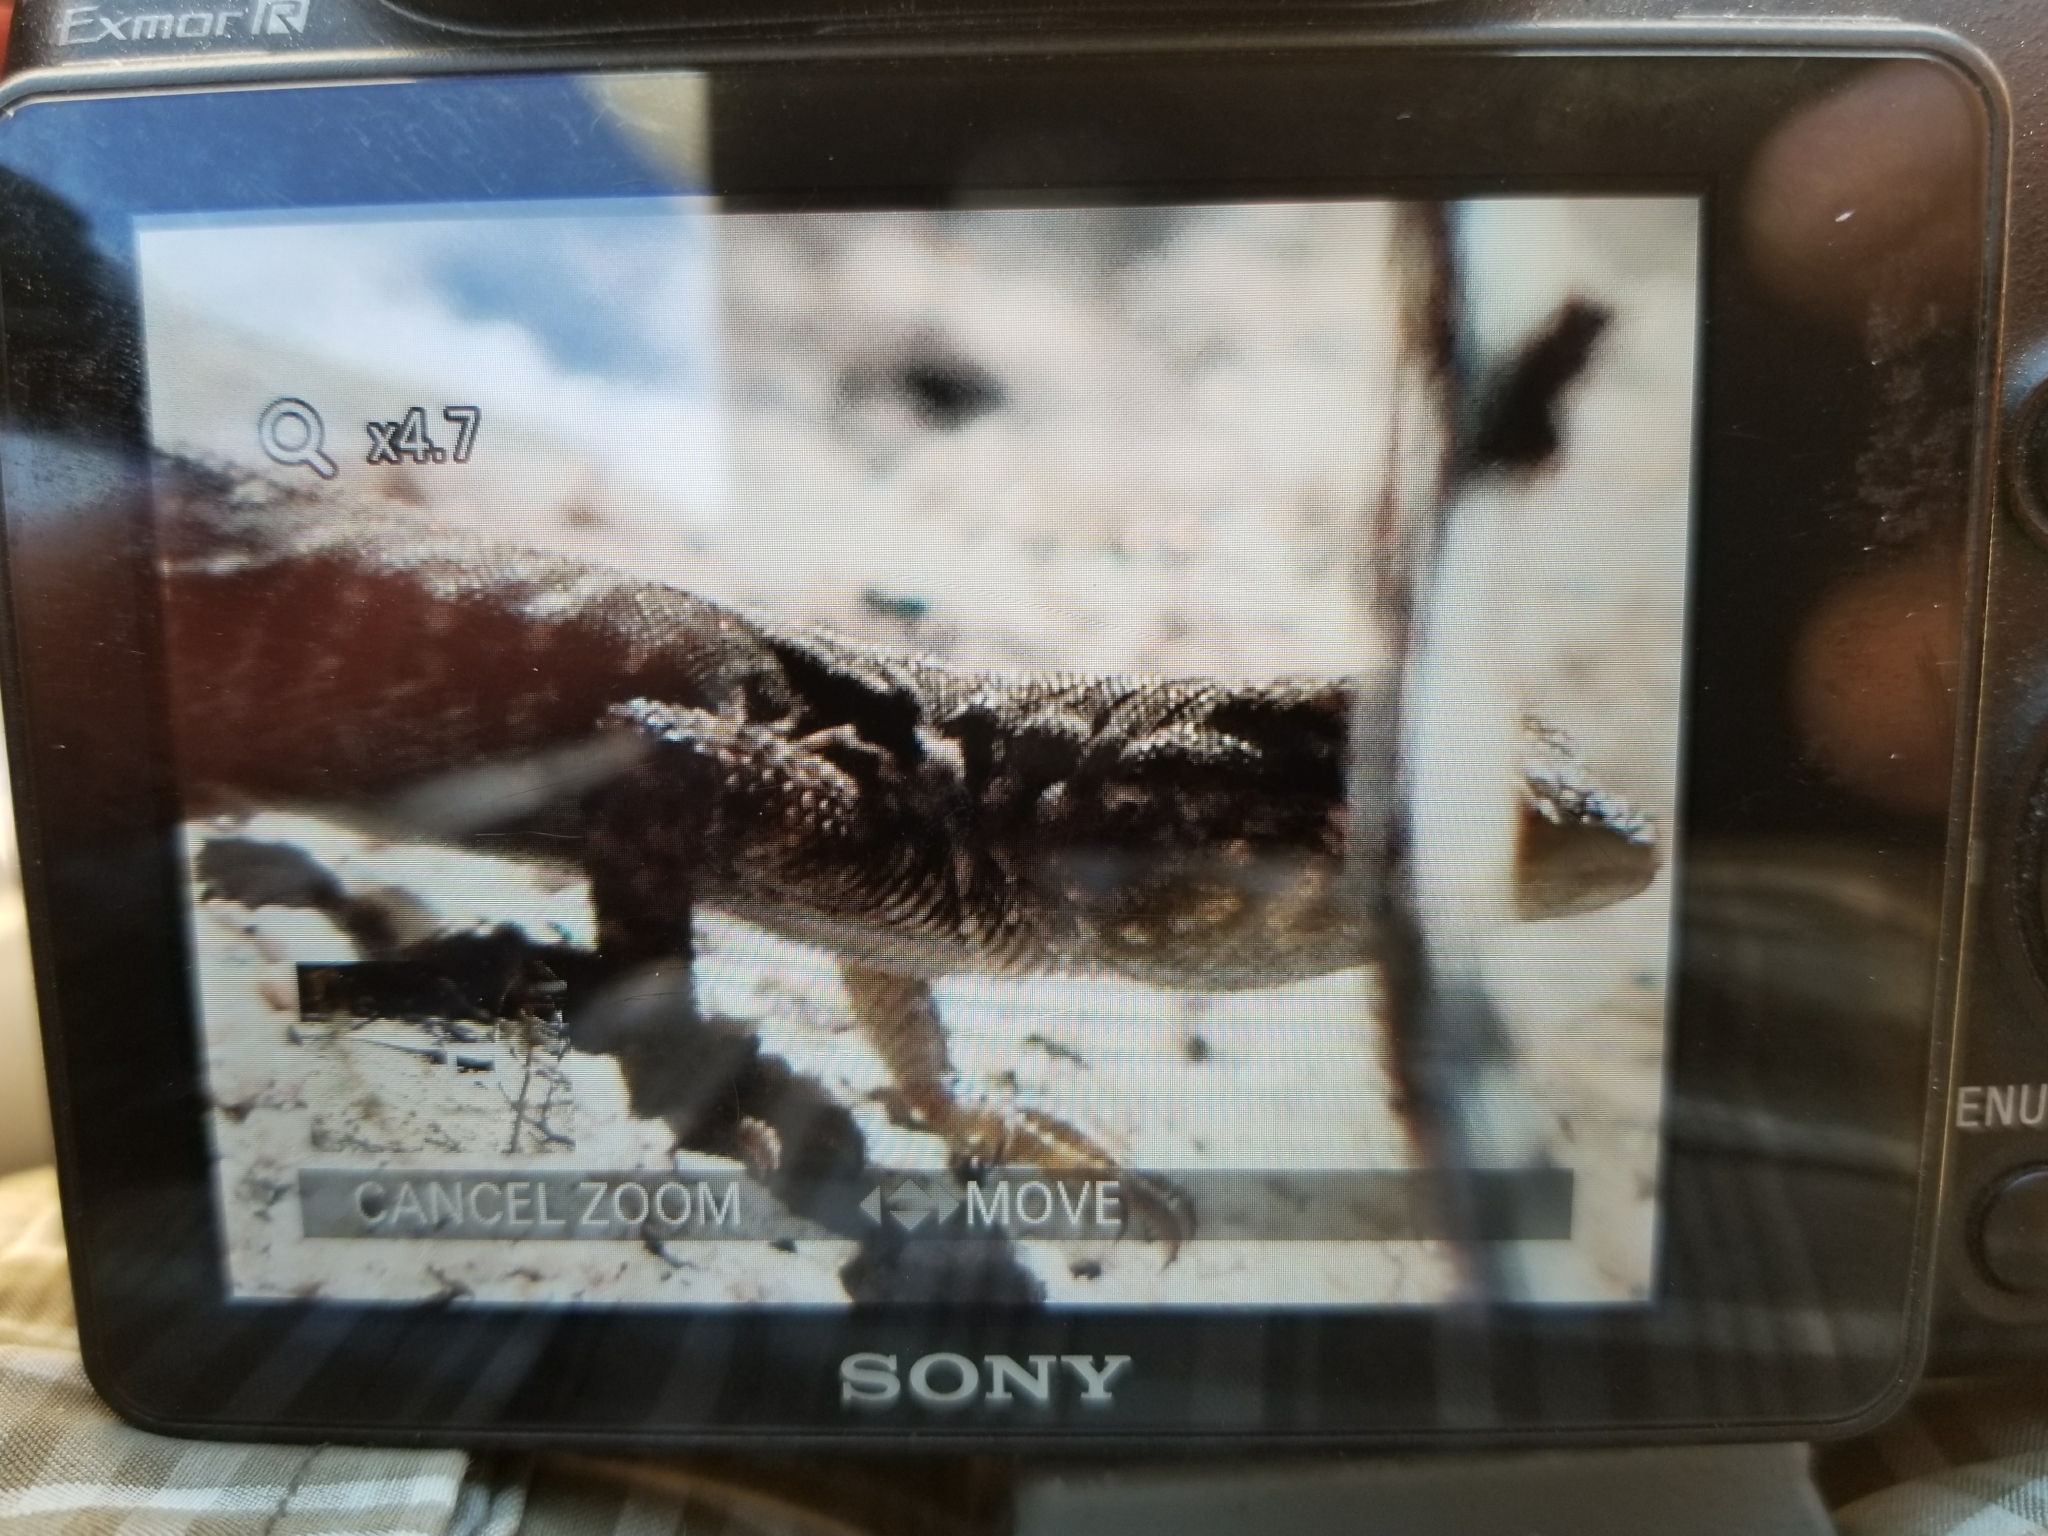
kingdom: Animalia
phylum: Chordata
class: Squamata
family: Phrynosomatidae
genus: Uta
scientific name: Uta stansburiana
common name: Side-blotched lizard
